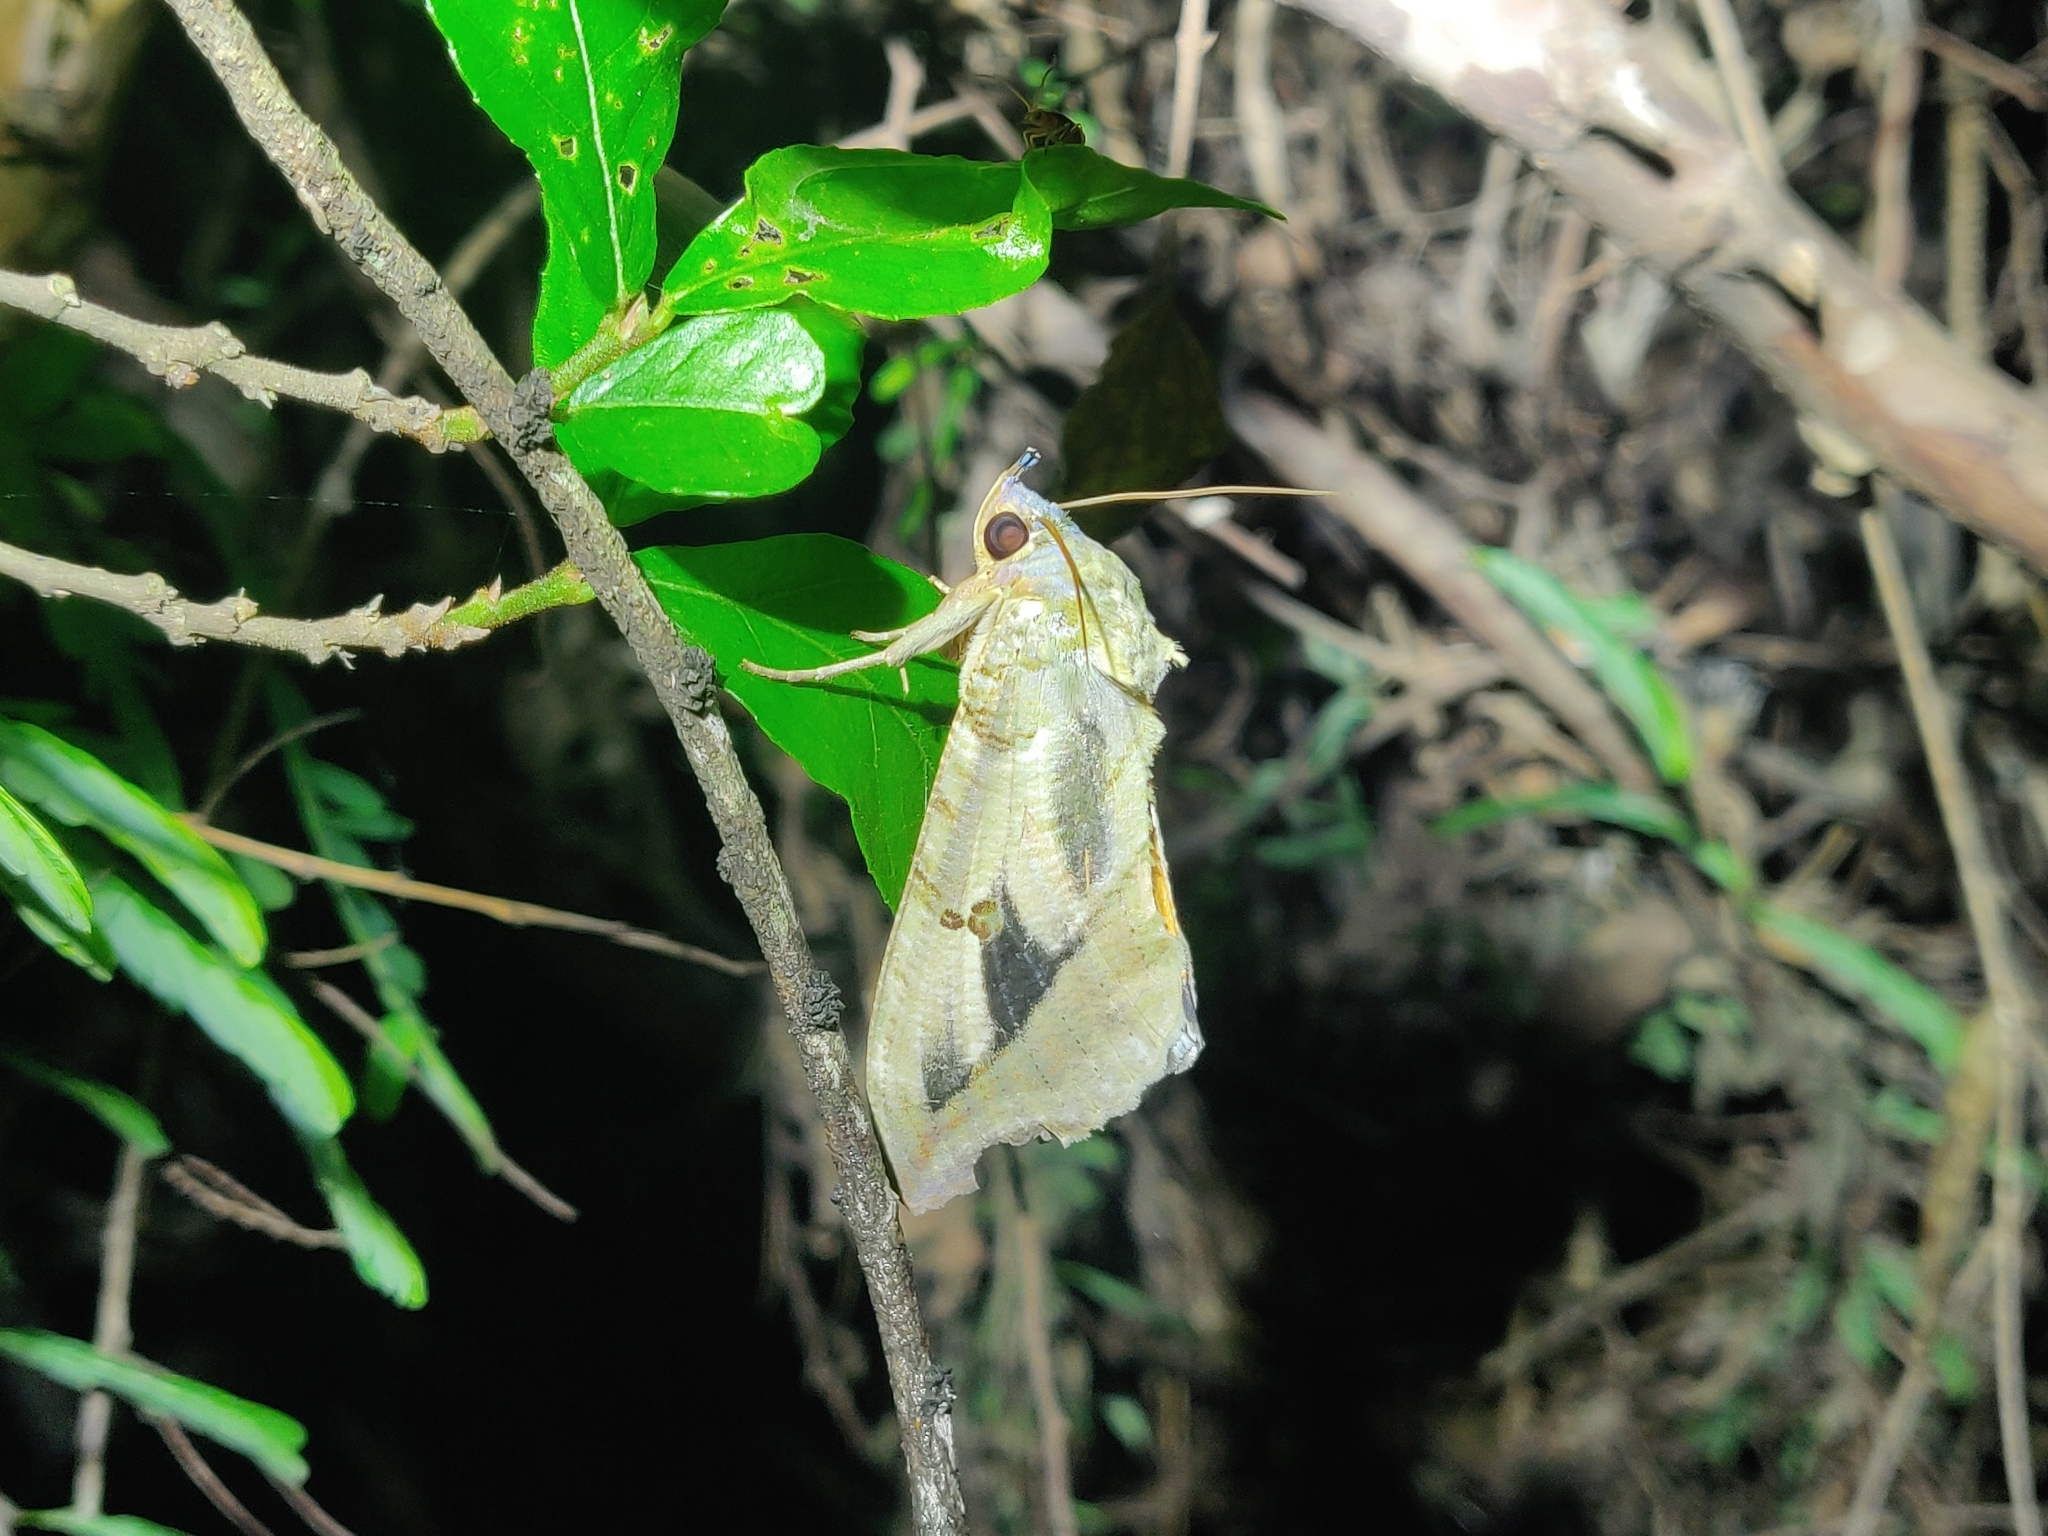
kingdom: Animalia
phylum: Arthropoda
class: Insecta
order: Lepidoptera
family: Erebidae
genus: Eudocima
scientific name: Eudocima materna
